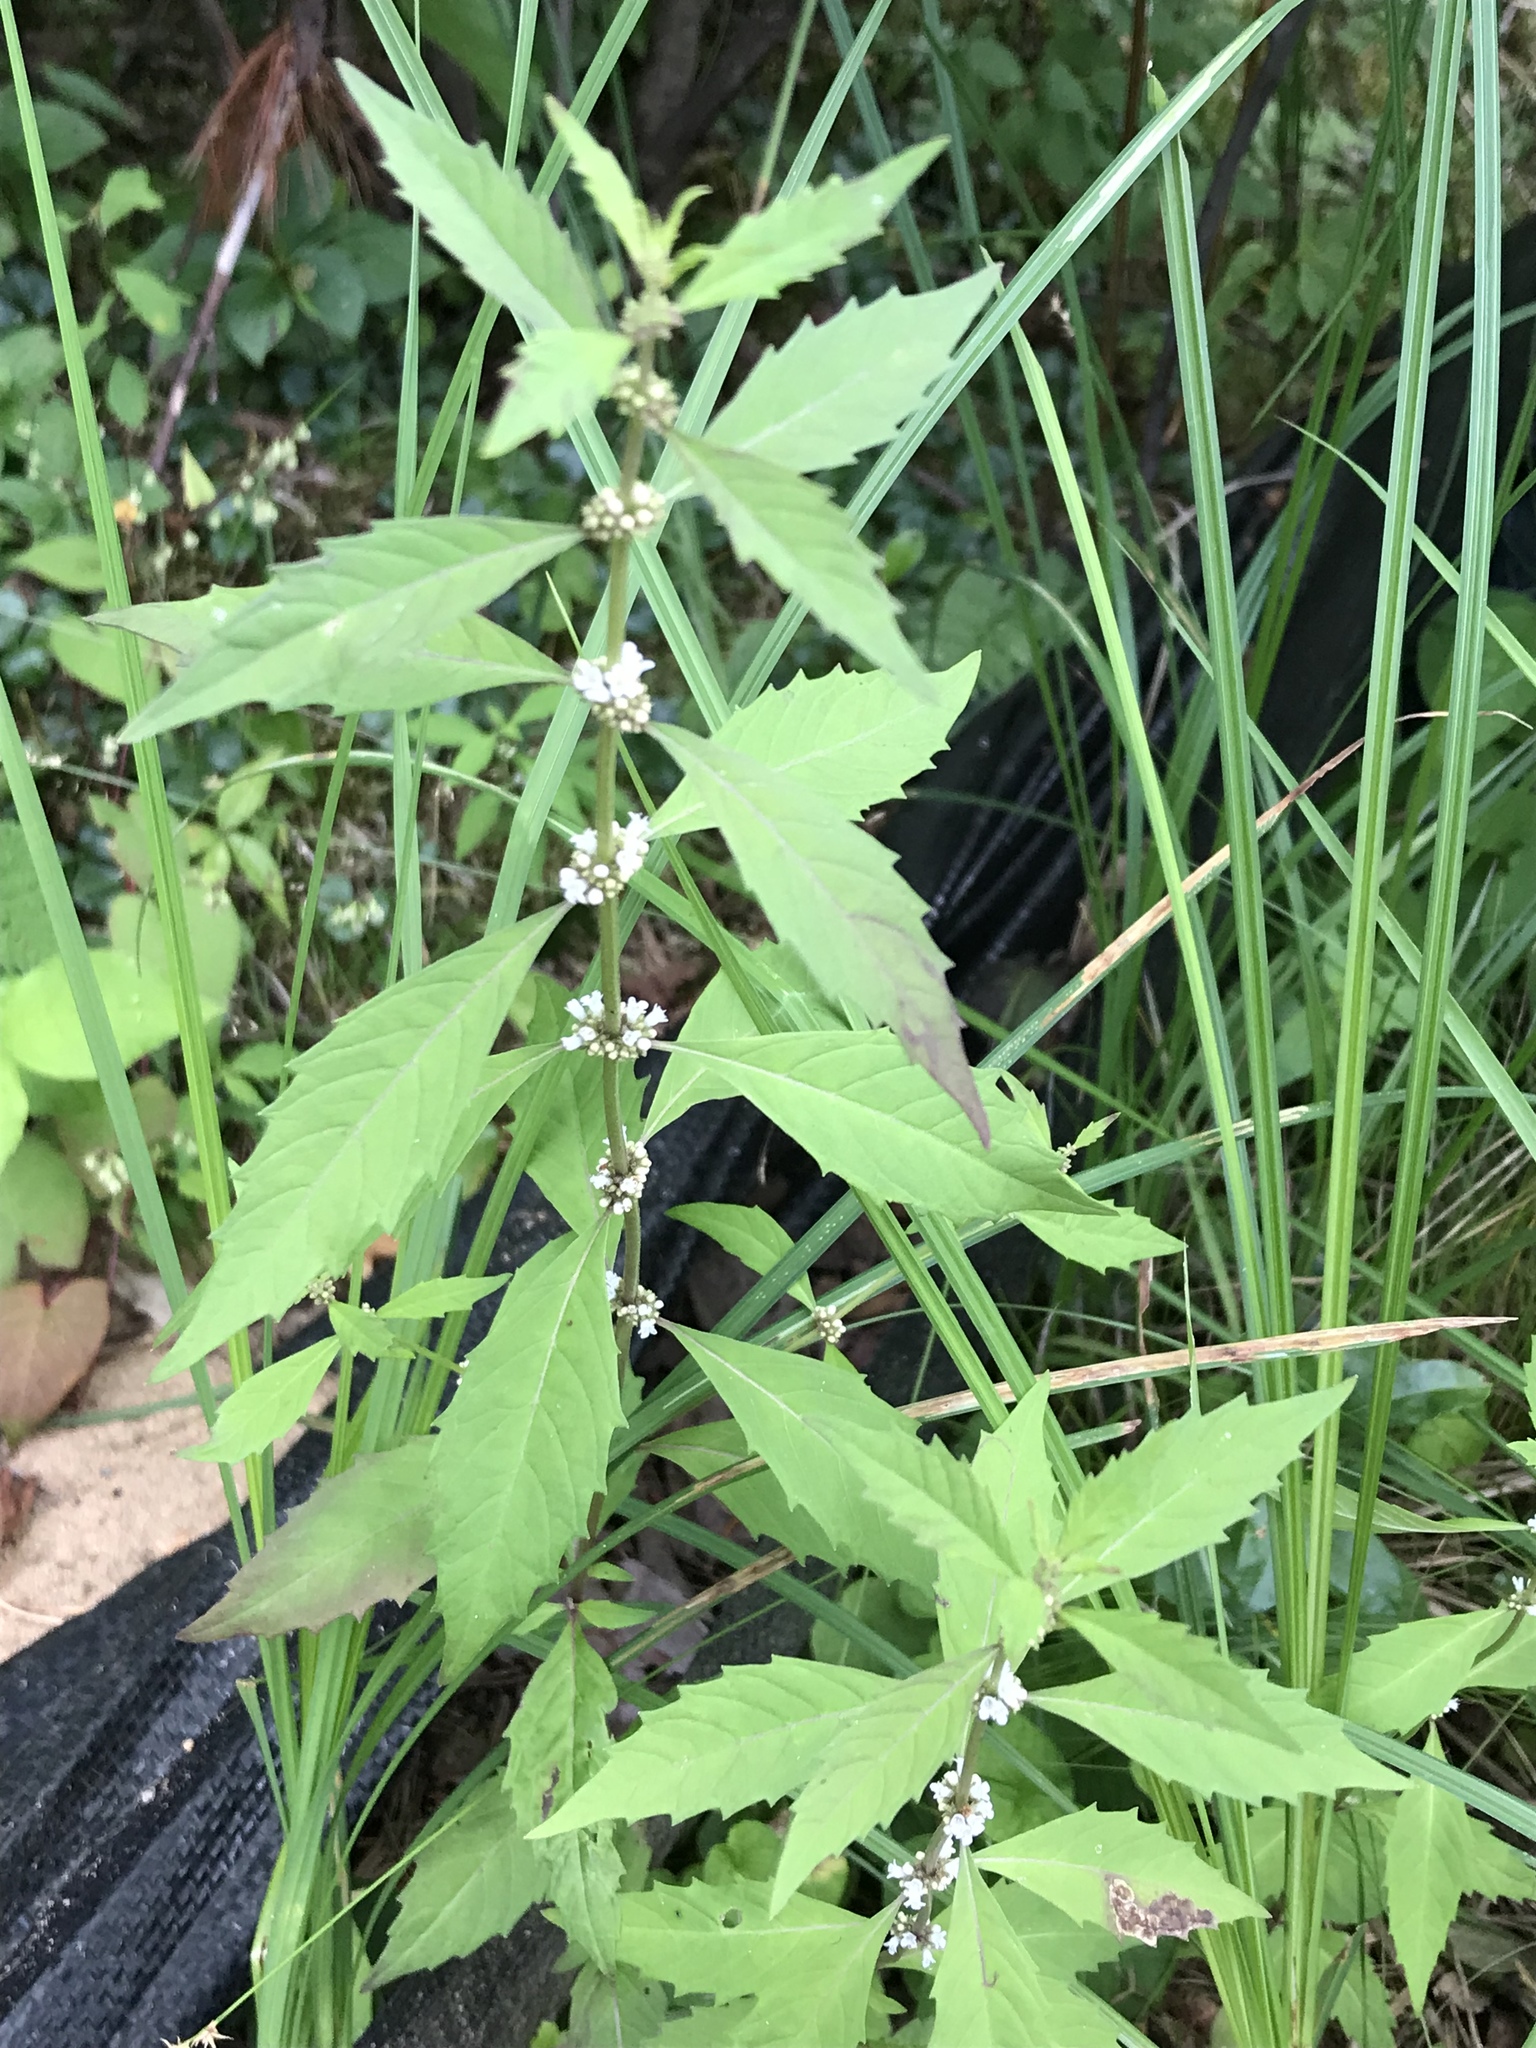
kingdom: Plantae
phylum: Tracheophyta
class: Magnoliopsida
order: Lamiales
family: Lamiaceae
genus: Lycopus
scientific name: Lycopus uniflorus
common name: Northern bugleweed
